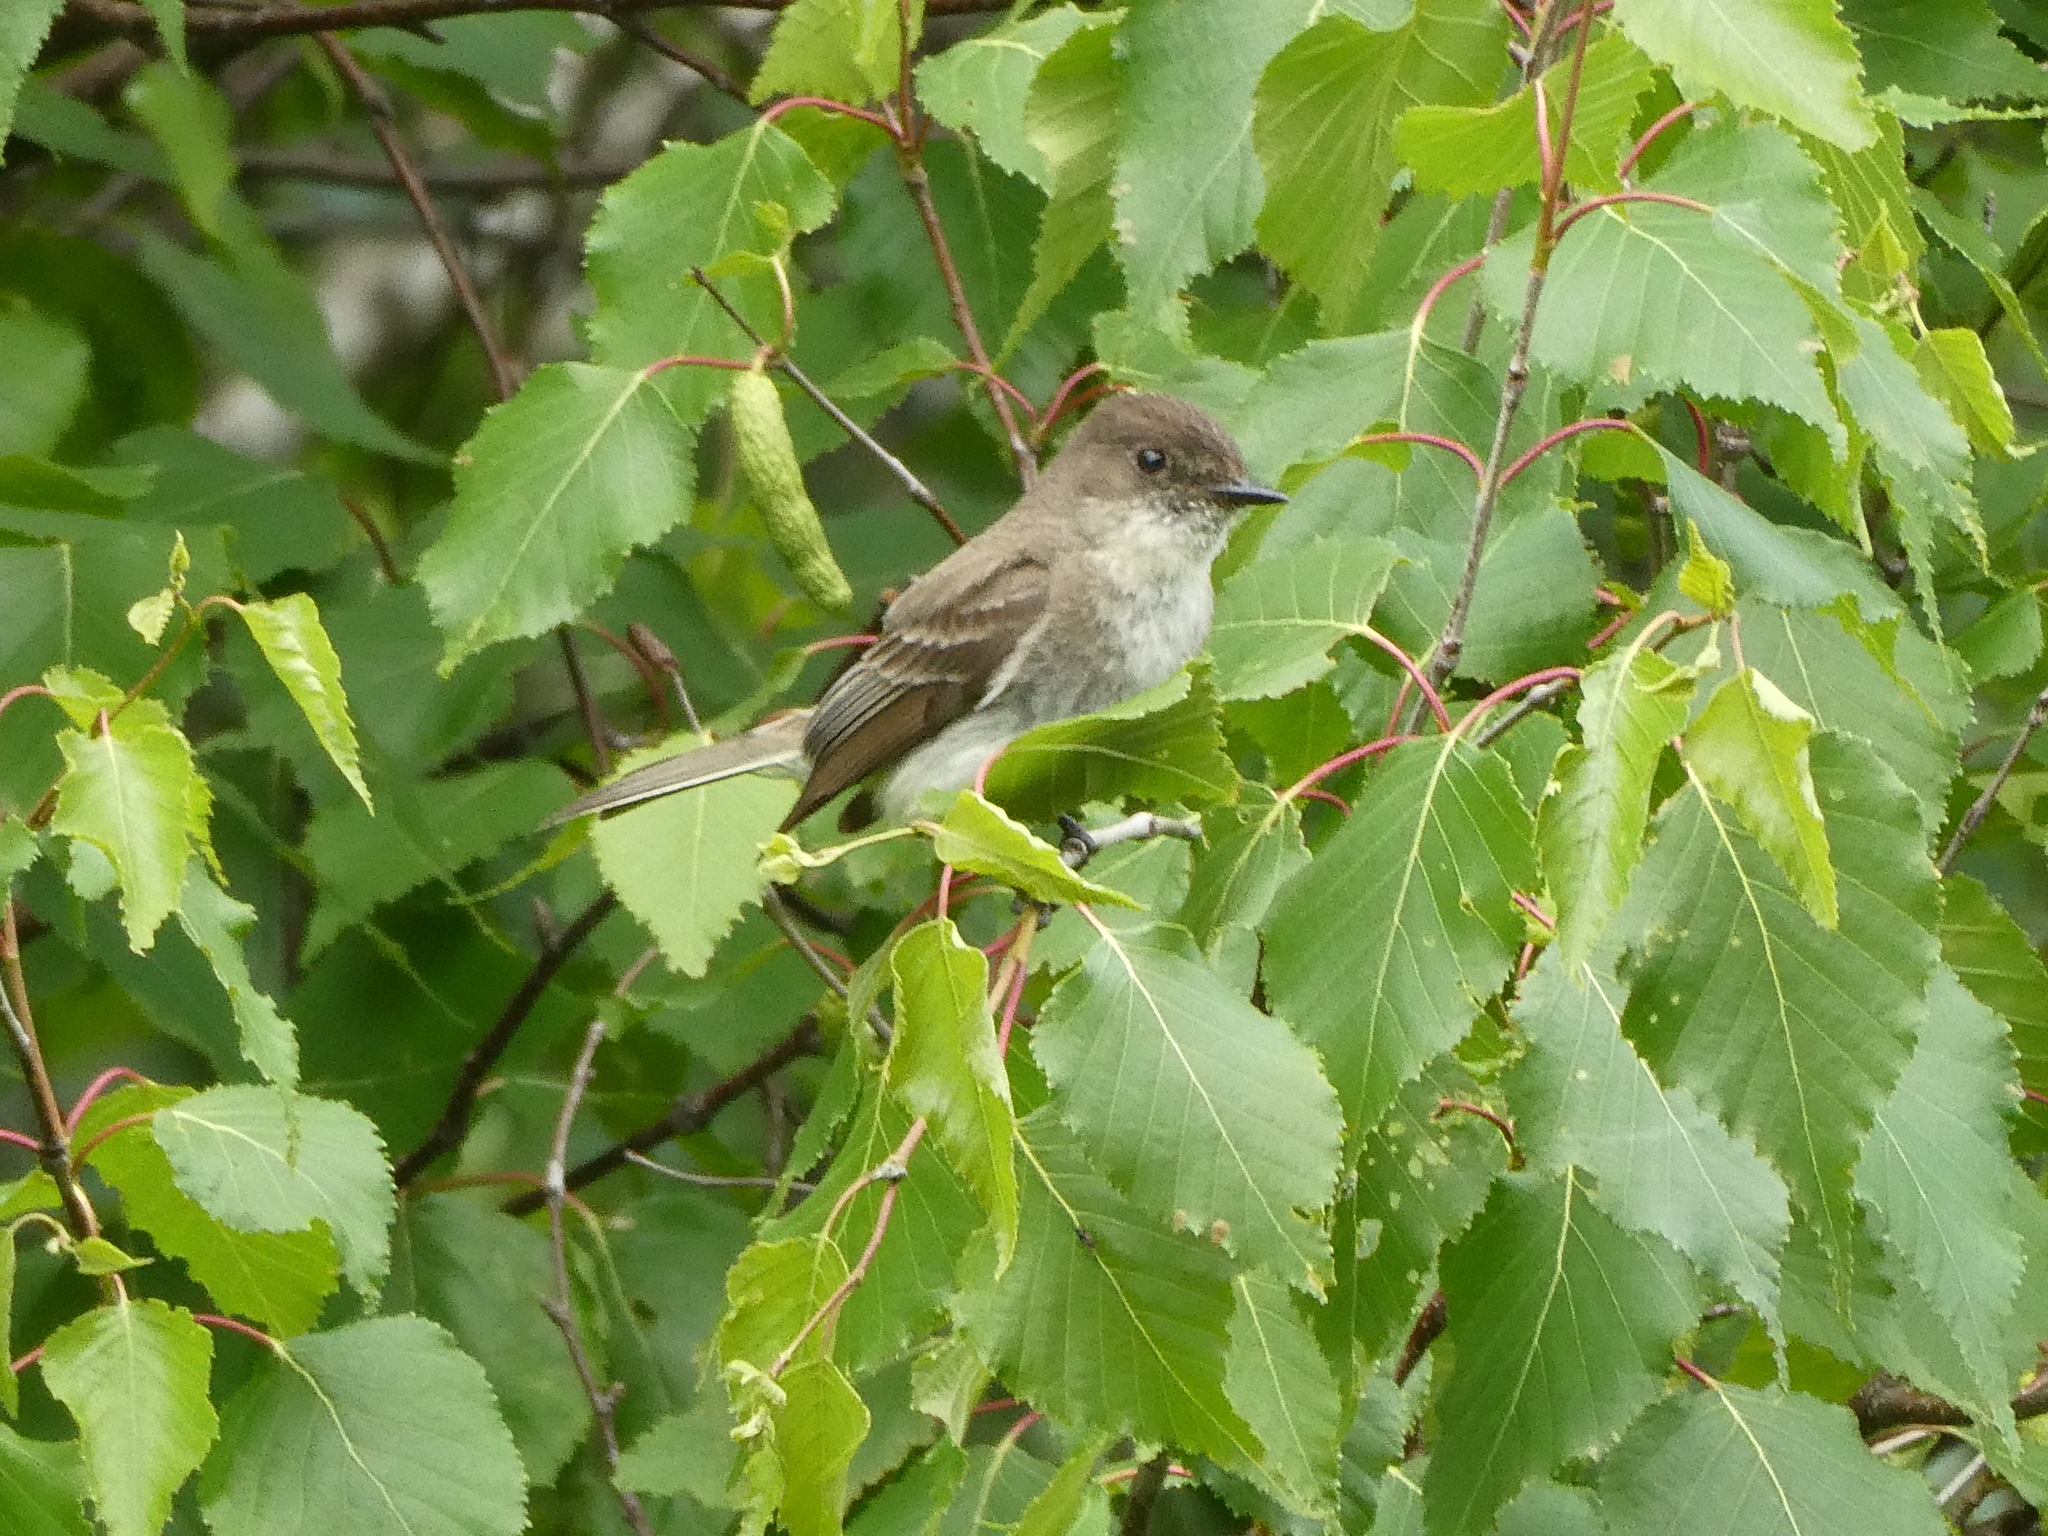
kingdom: Animalia
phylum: Chordata
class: Aves
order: Passeriformes
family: Tyrannidae
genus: Sayornis
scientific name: Sayornis phoebe
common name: Eastern phoebe
